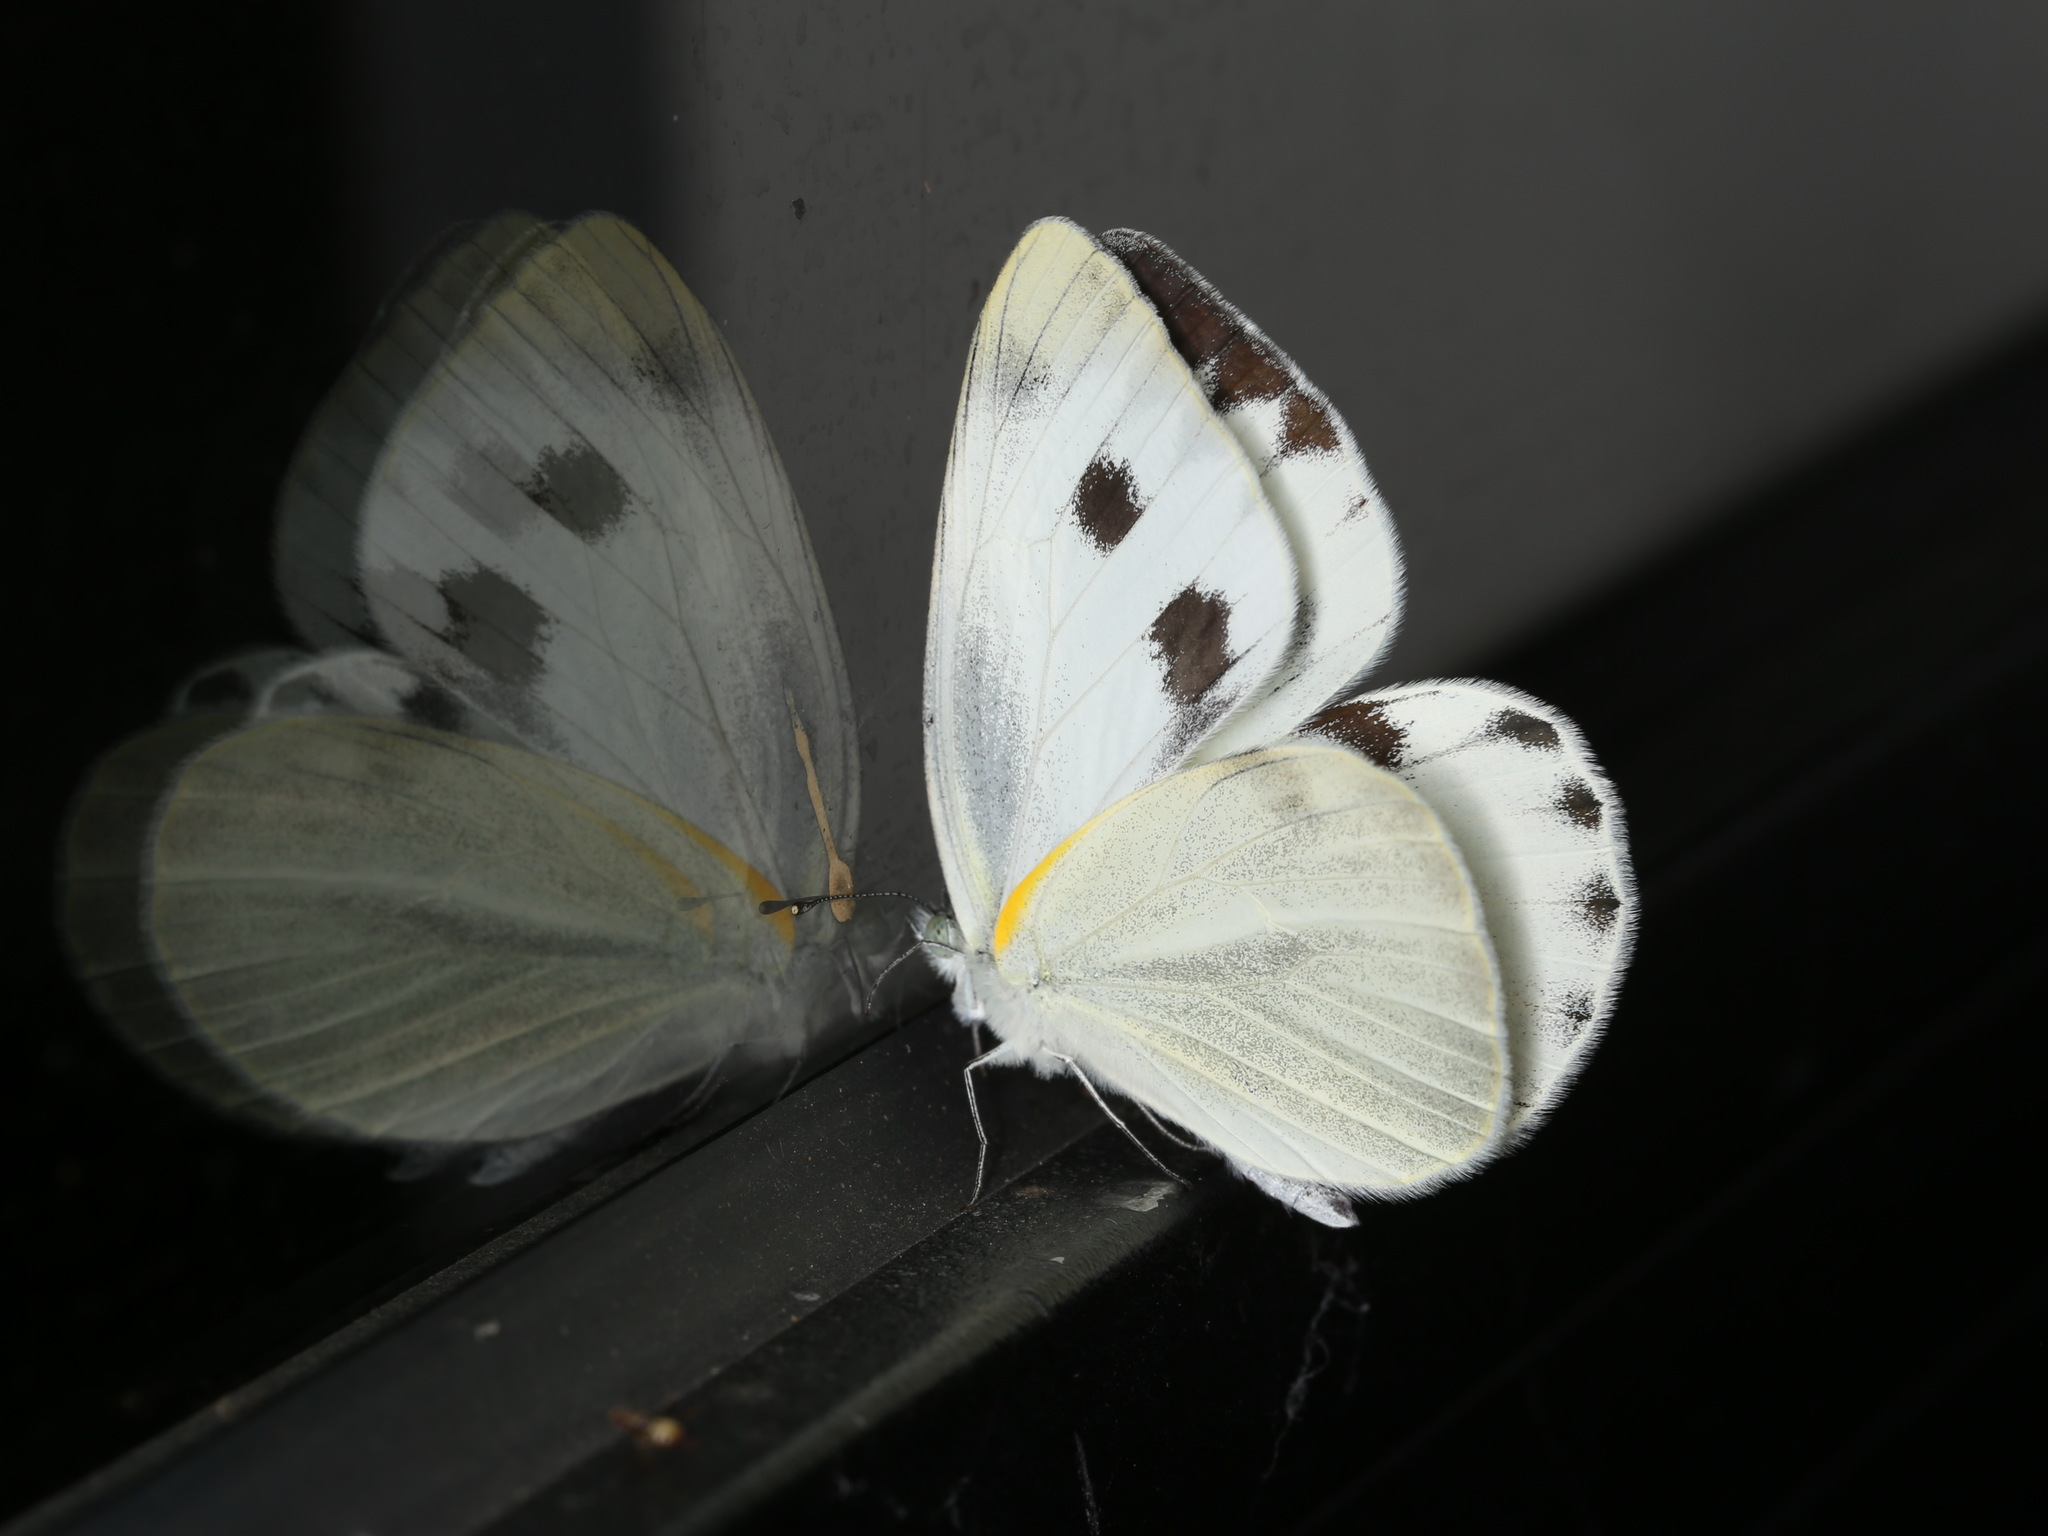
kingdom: Animalia
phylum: Arthropoda
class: Insecta
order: Lepidoptera
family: Pieridae
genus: Pieris
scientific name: Pieris canidia
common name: Indian cabbage white
